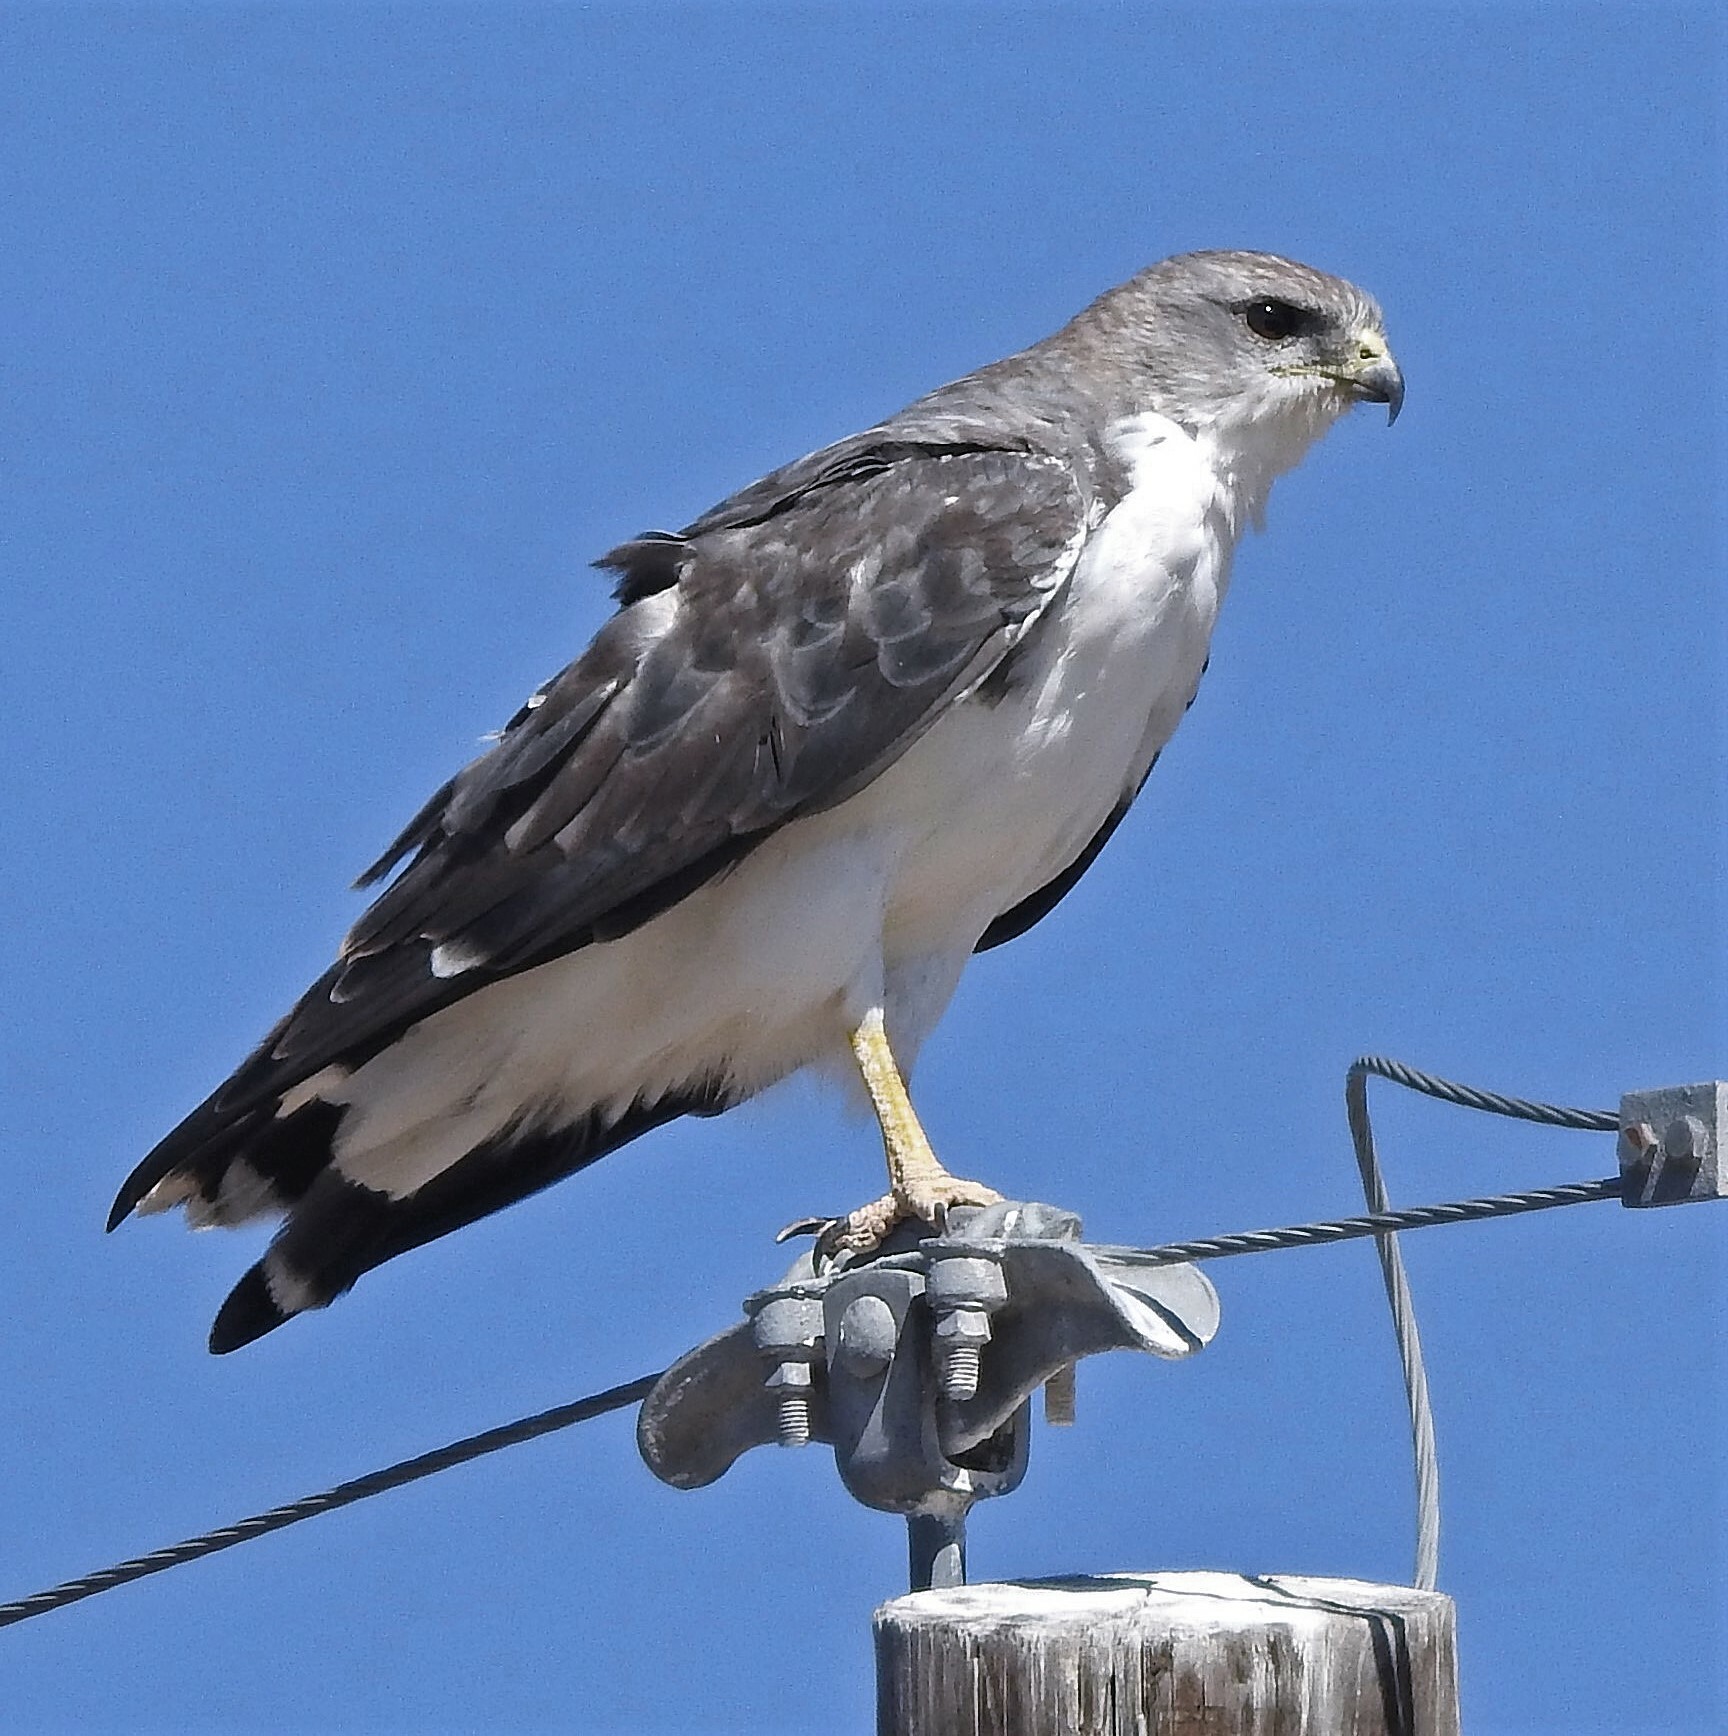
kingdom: Animalia
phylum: Chordata
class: Aves
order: Accipitriformes
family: Accipitridae
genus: Buteo
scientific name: Buteo polyosoma
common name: Variable hawk
